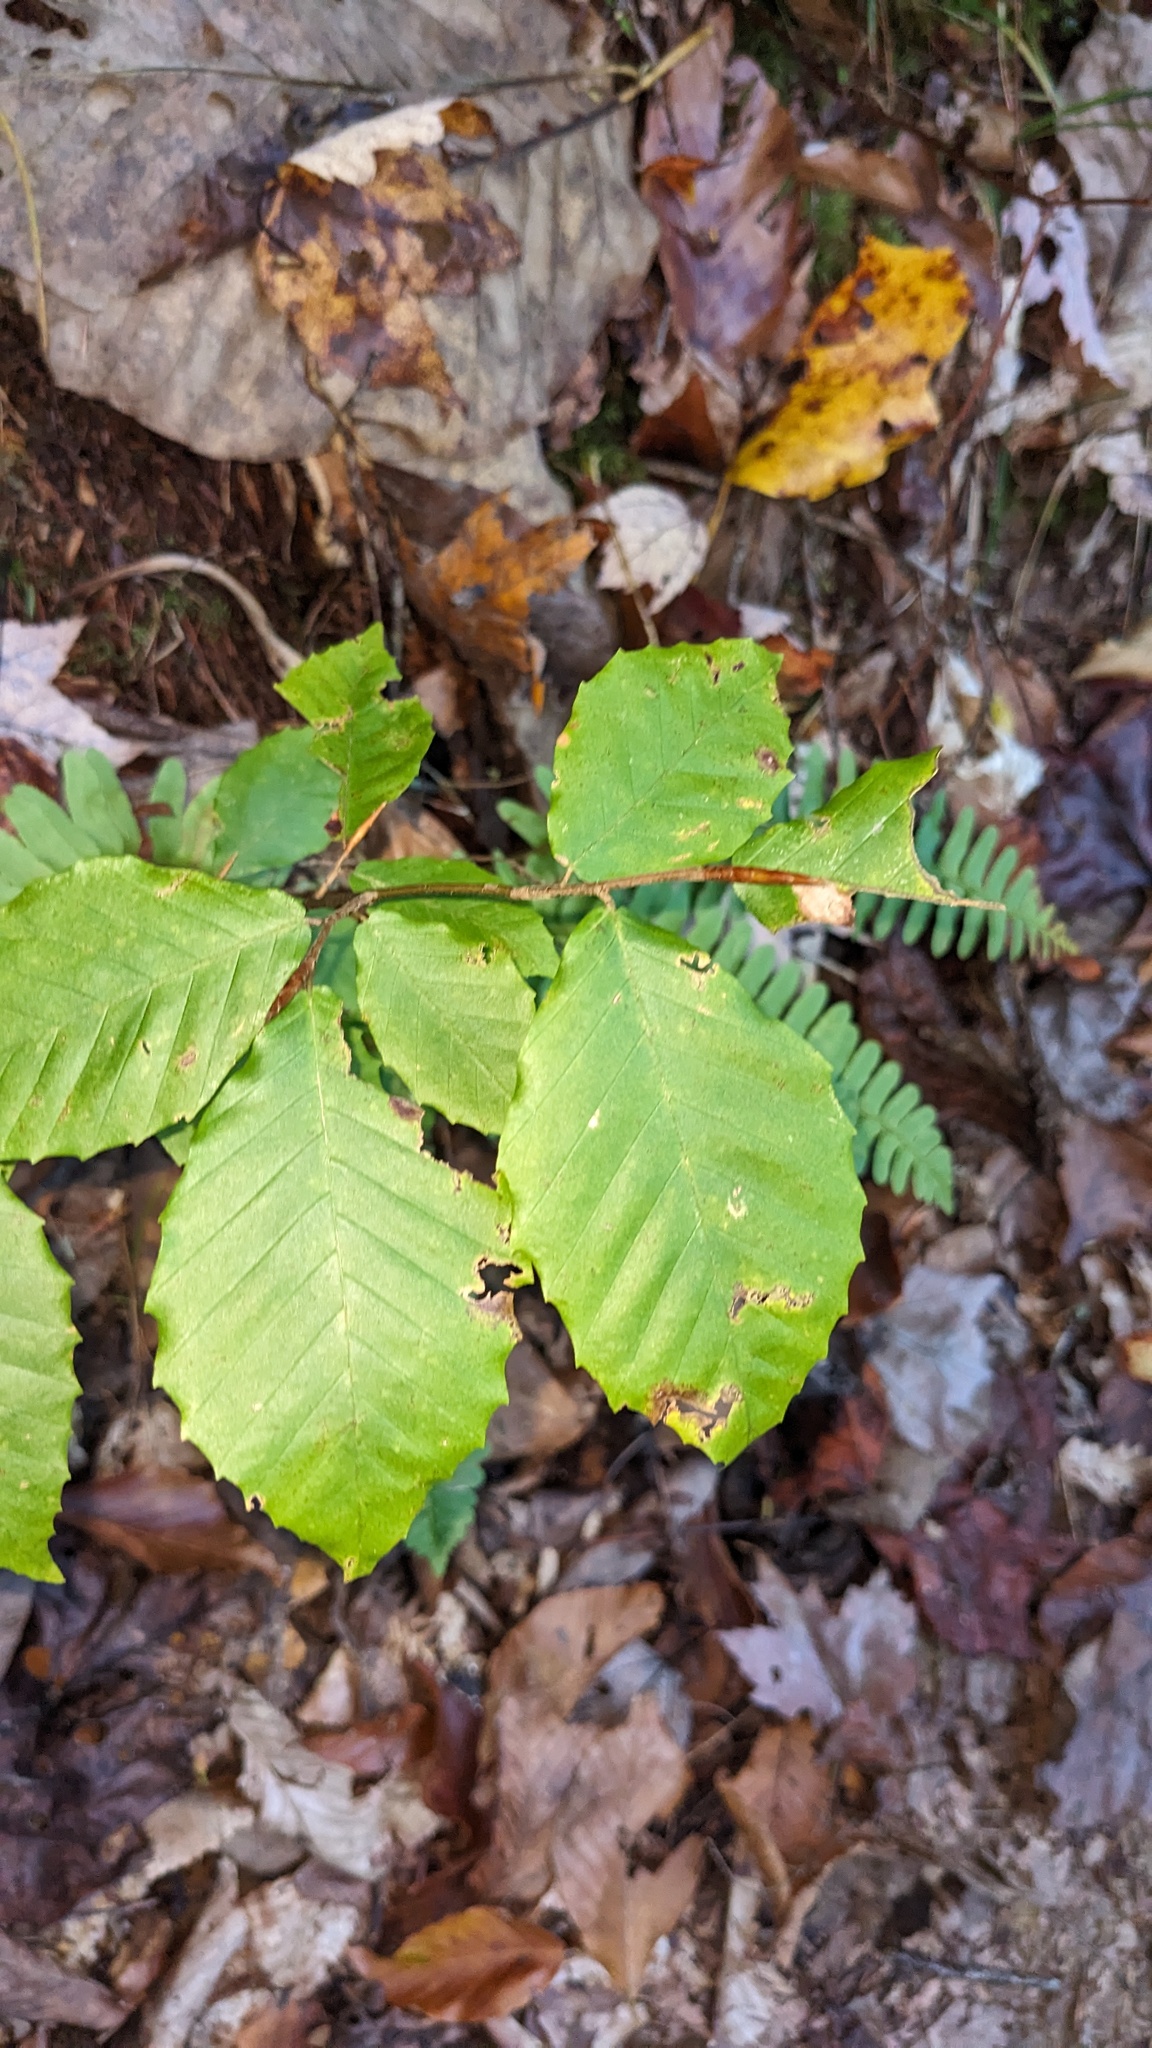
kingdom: Plantae
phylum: Tracheophyta
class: Magnoliopsida
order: Fagales
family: Fagaceae
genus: Fagus
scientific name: Fagus grandifolia
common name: American beech
